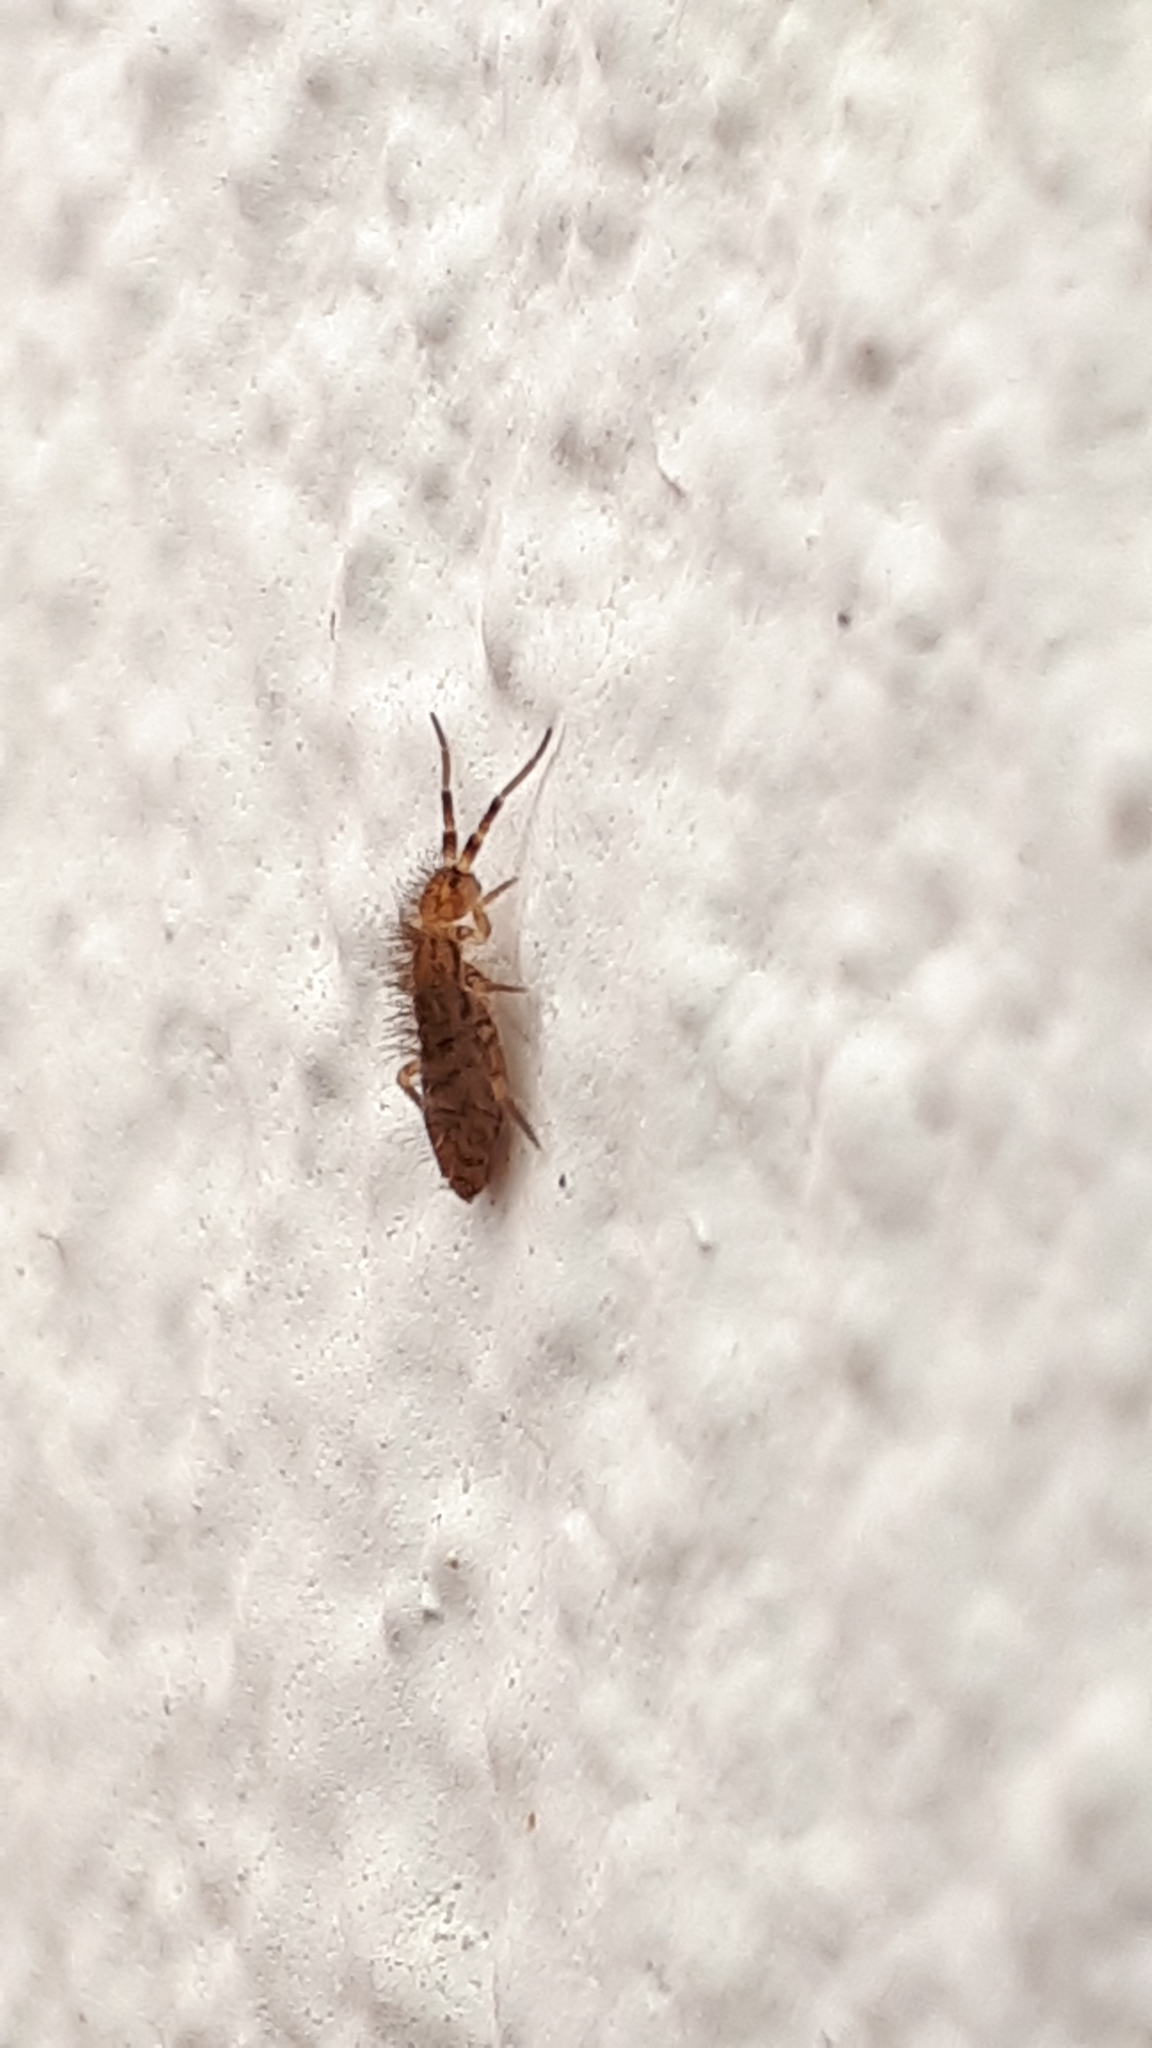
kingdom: Animalia
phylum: Arthropoda
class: Collembola
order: Entomobryomorpha
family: Orchesellidae
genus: Orchesella
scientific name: Orchesella villosa
